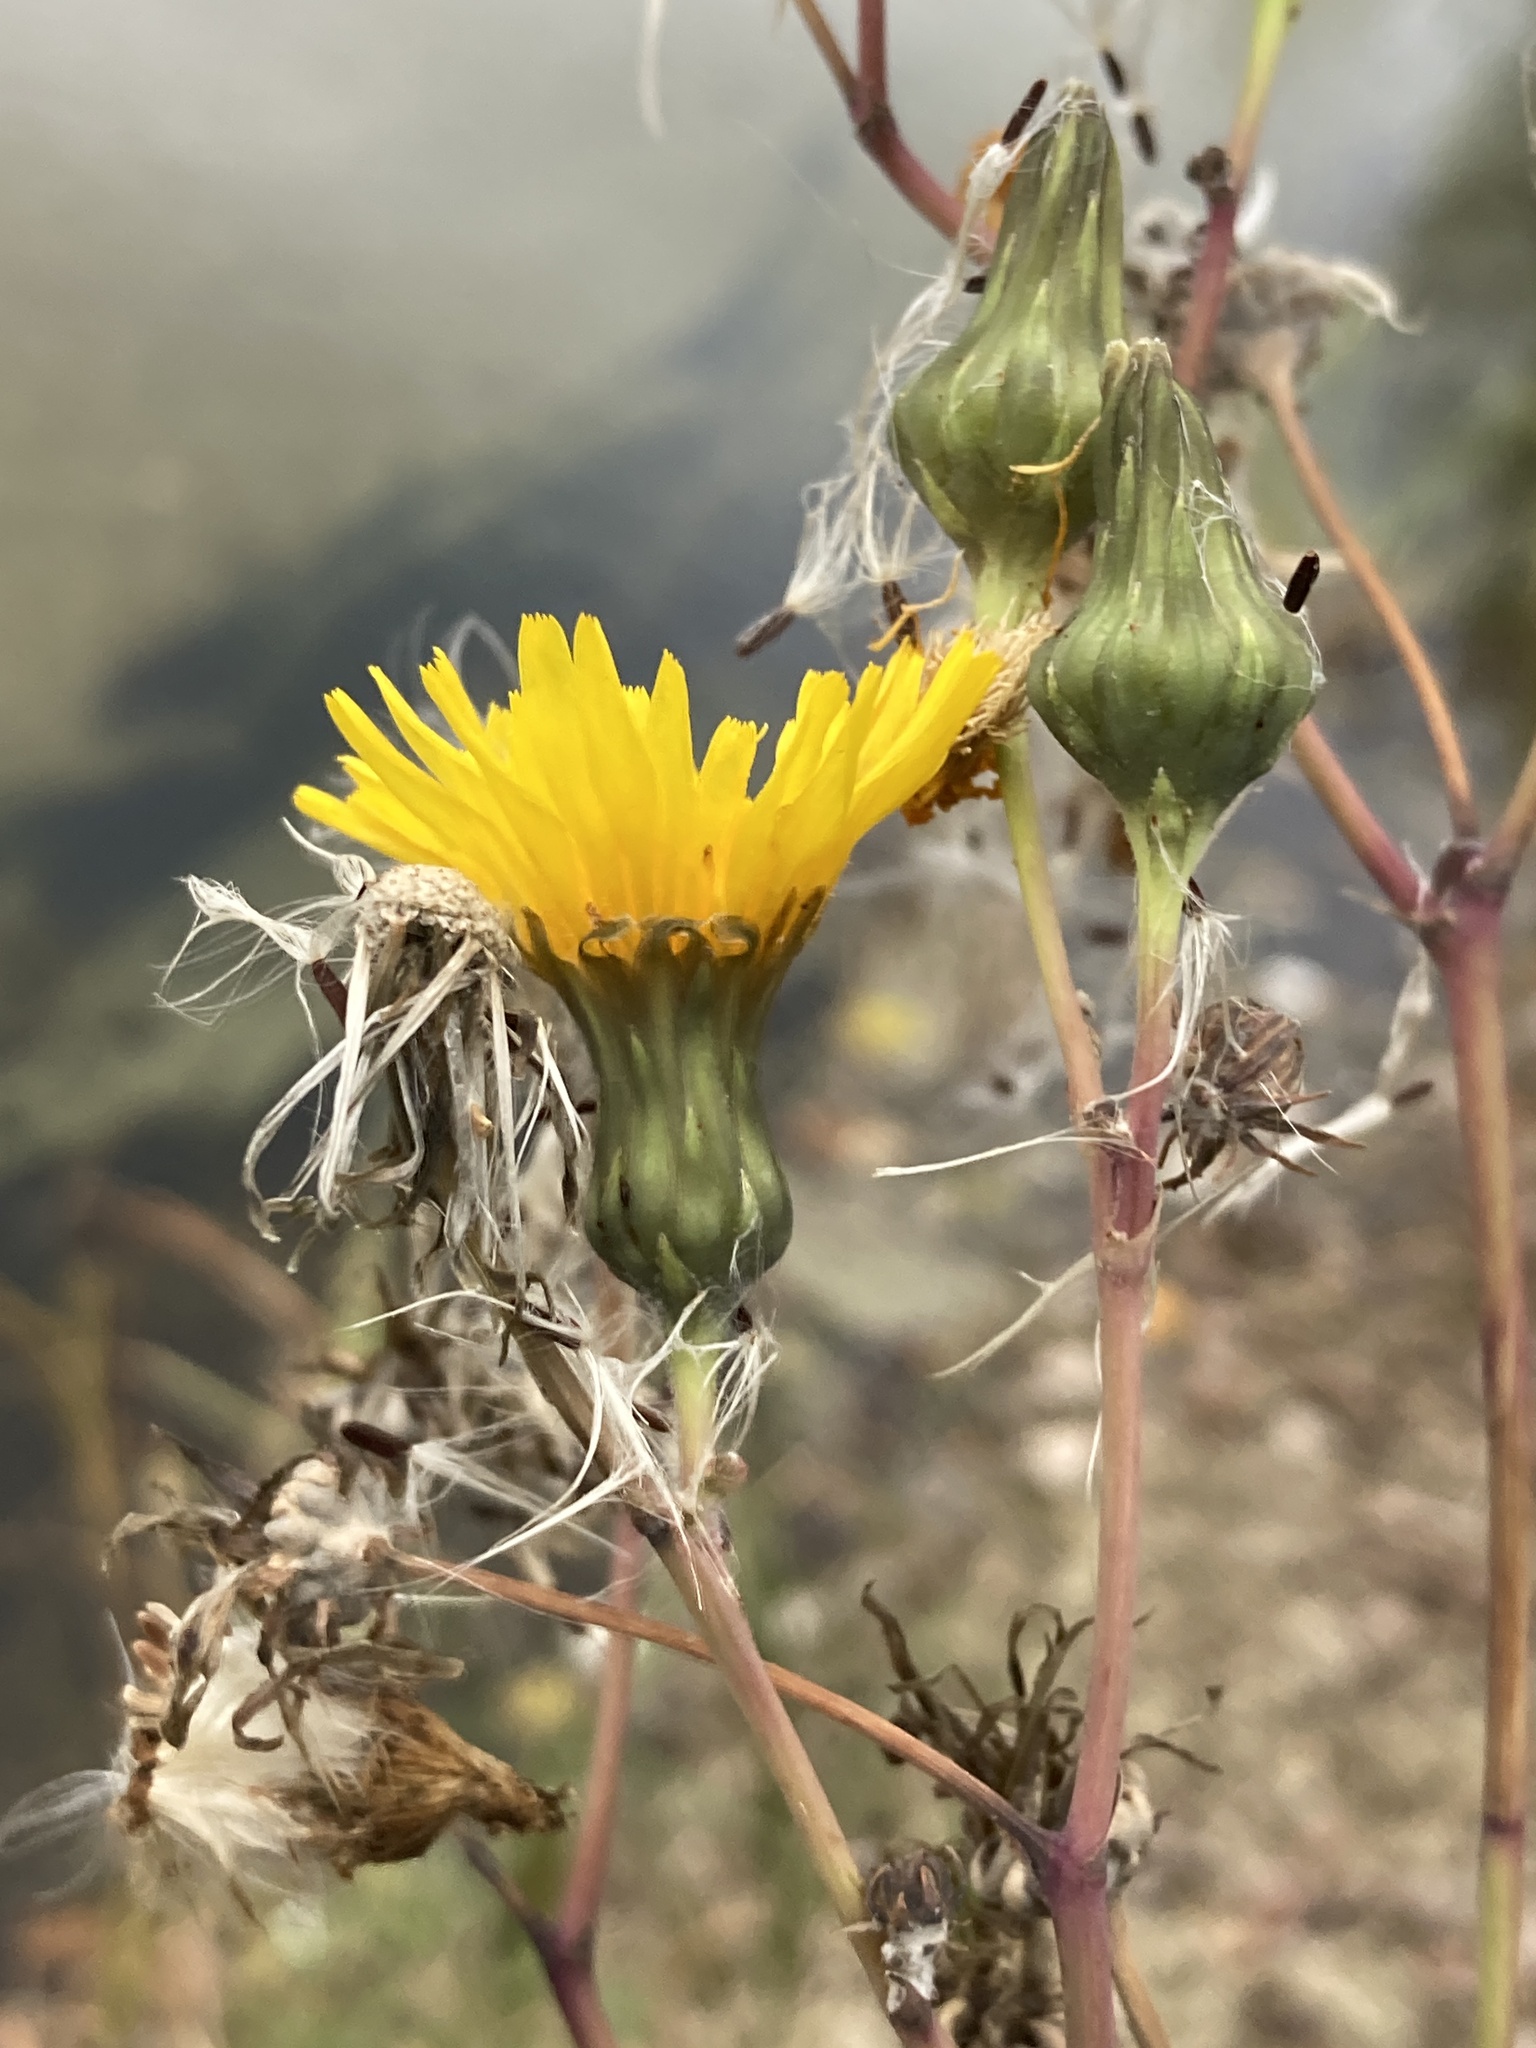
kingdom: Plantae
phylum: Tracheophyta
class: Magnoliopsida
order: Asterales
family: Asteraceae
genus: Sonchus
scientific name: Sonchus arvensis
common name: Perennial sow-thistle
